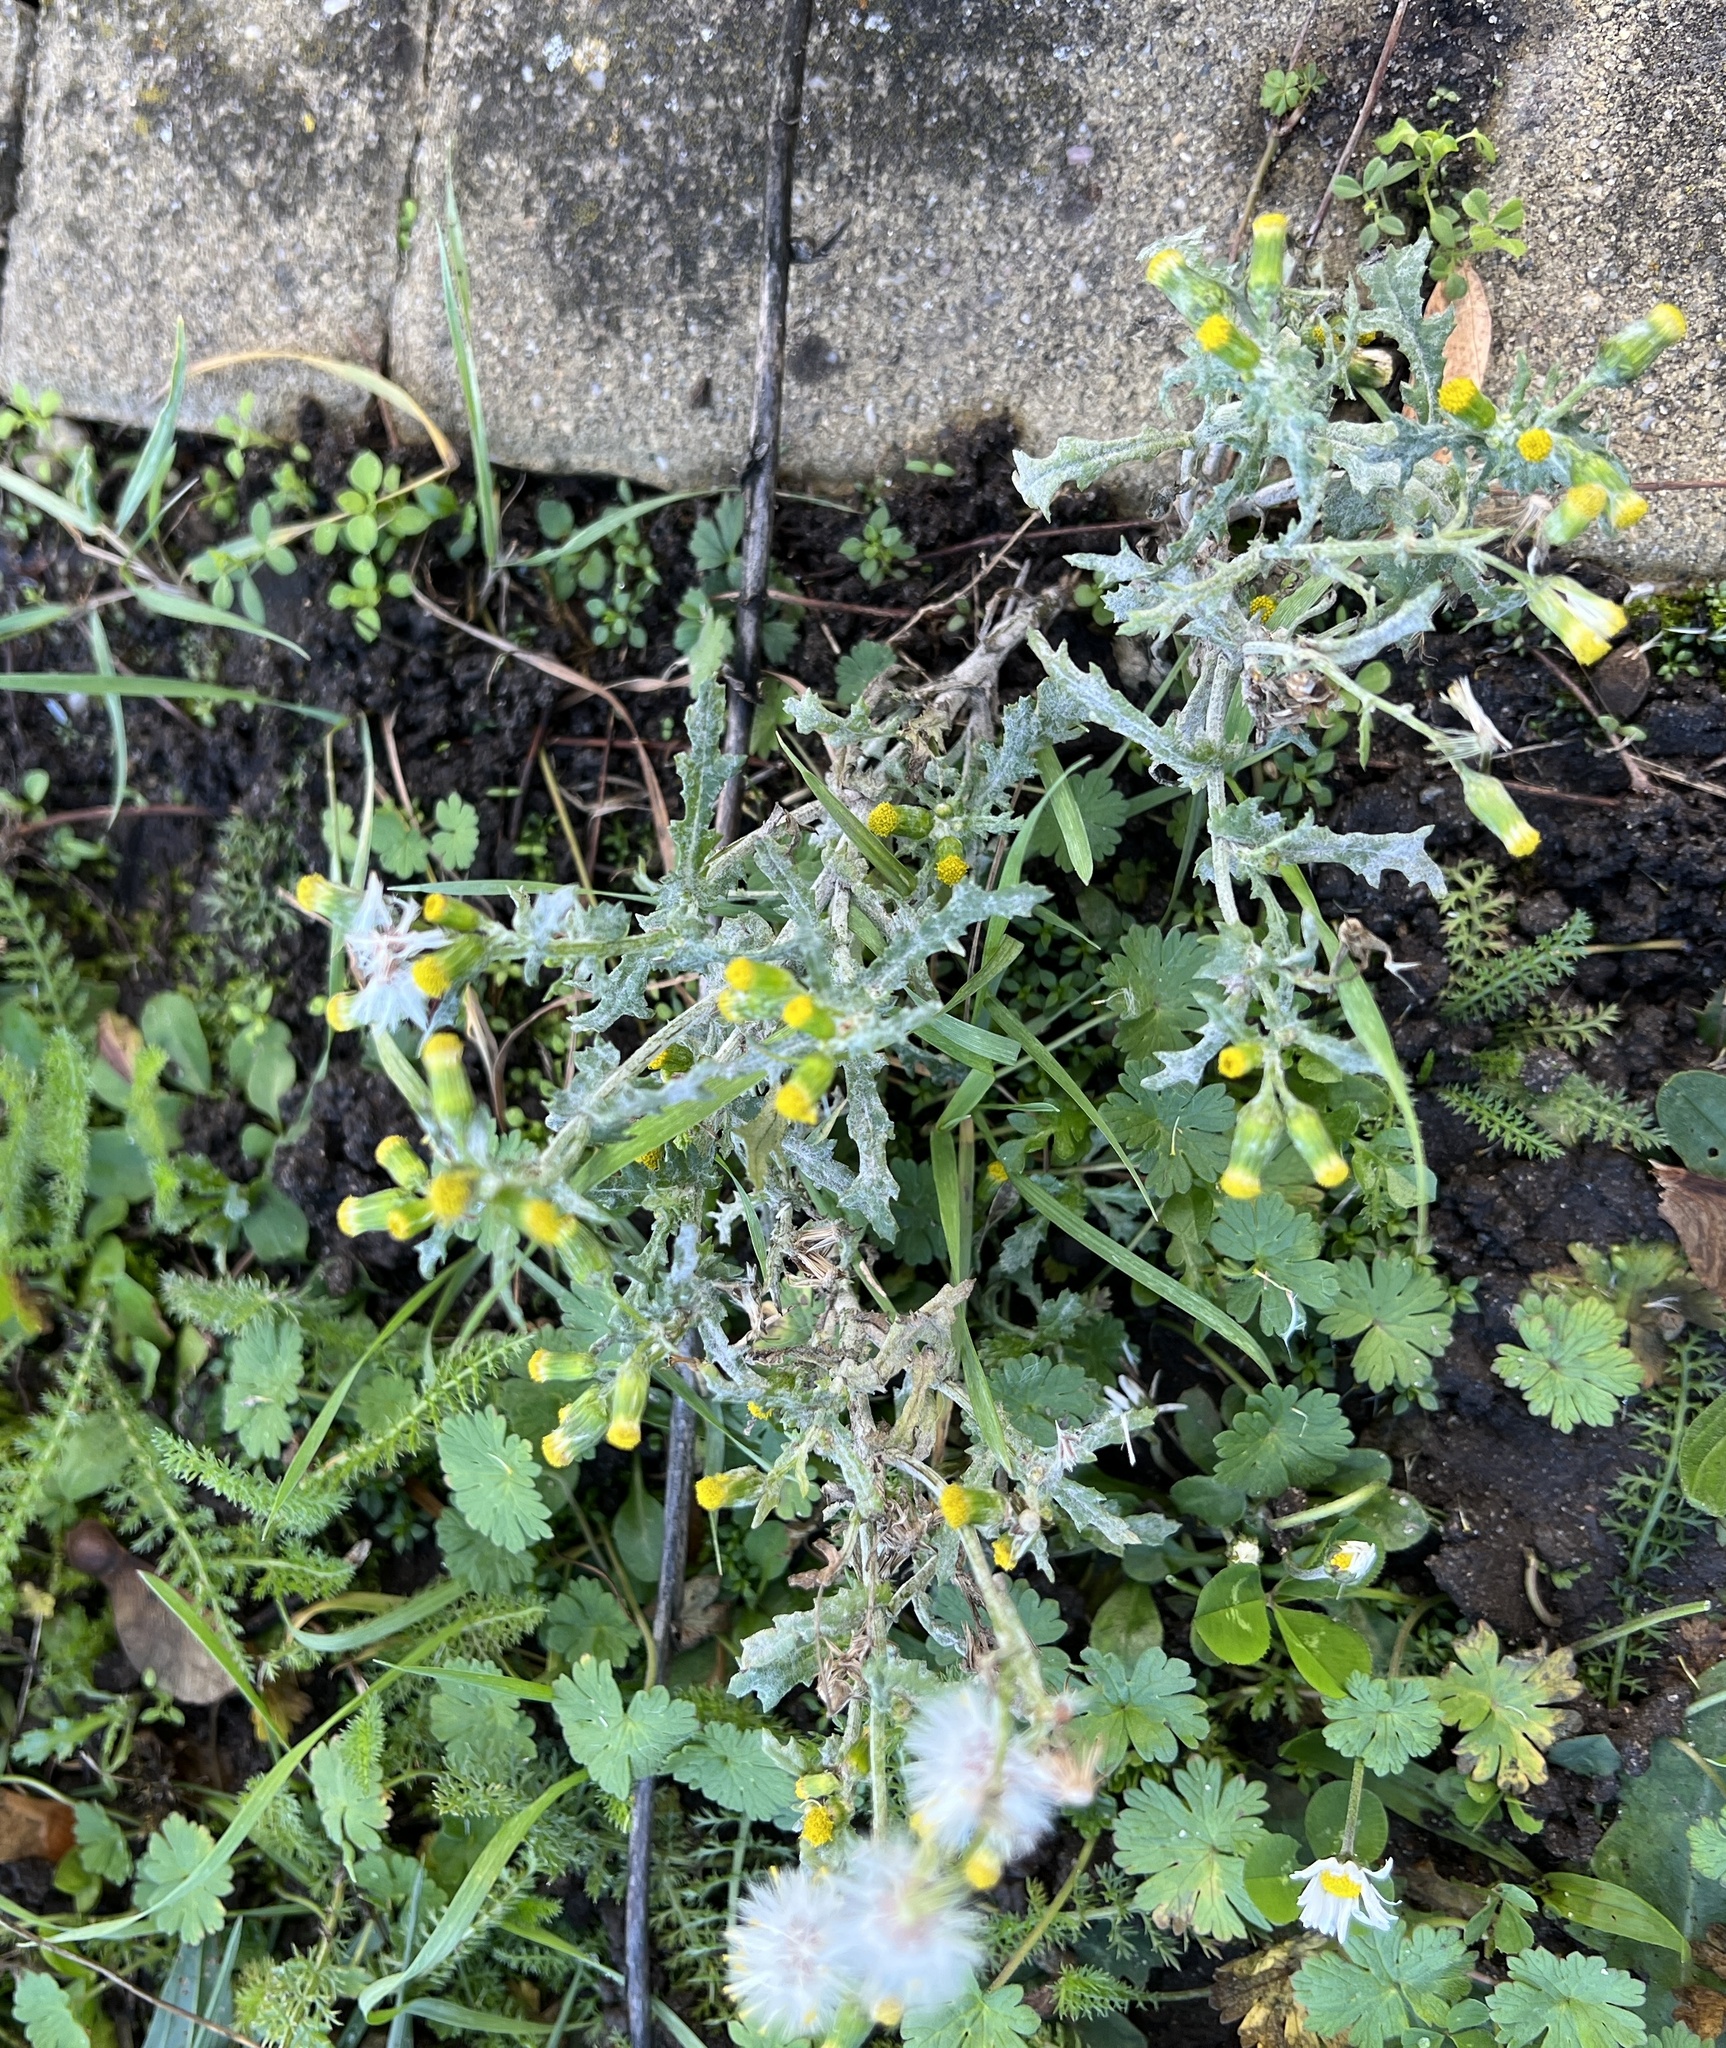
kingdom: Plantae
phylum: Tracheophyta
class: Magnoliopsida
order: Asterales
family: Asteraceae
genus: Senecio
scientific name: Senecio vulgaris
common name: Old-man-in-the-spring
